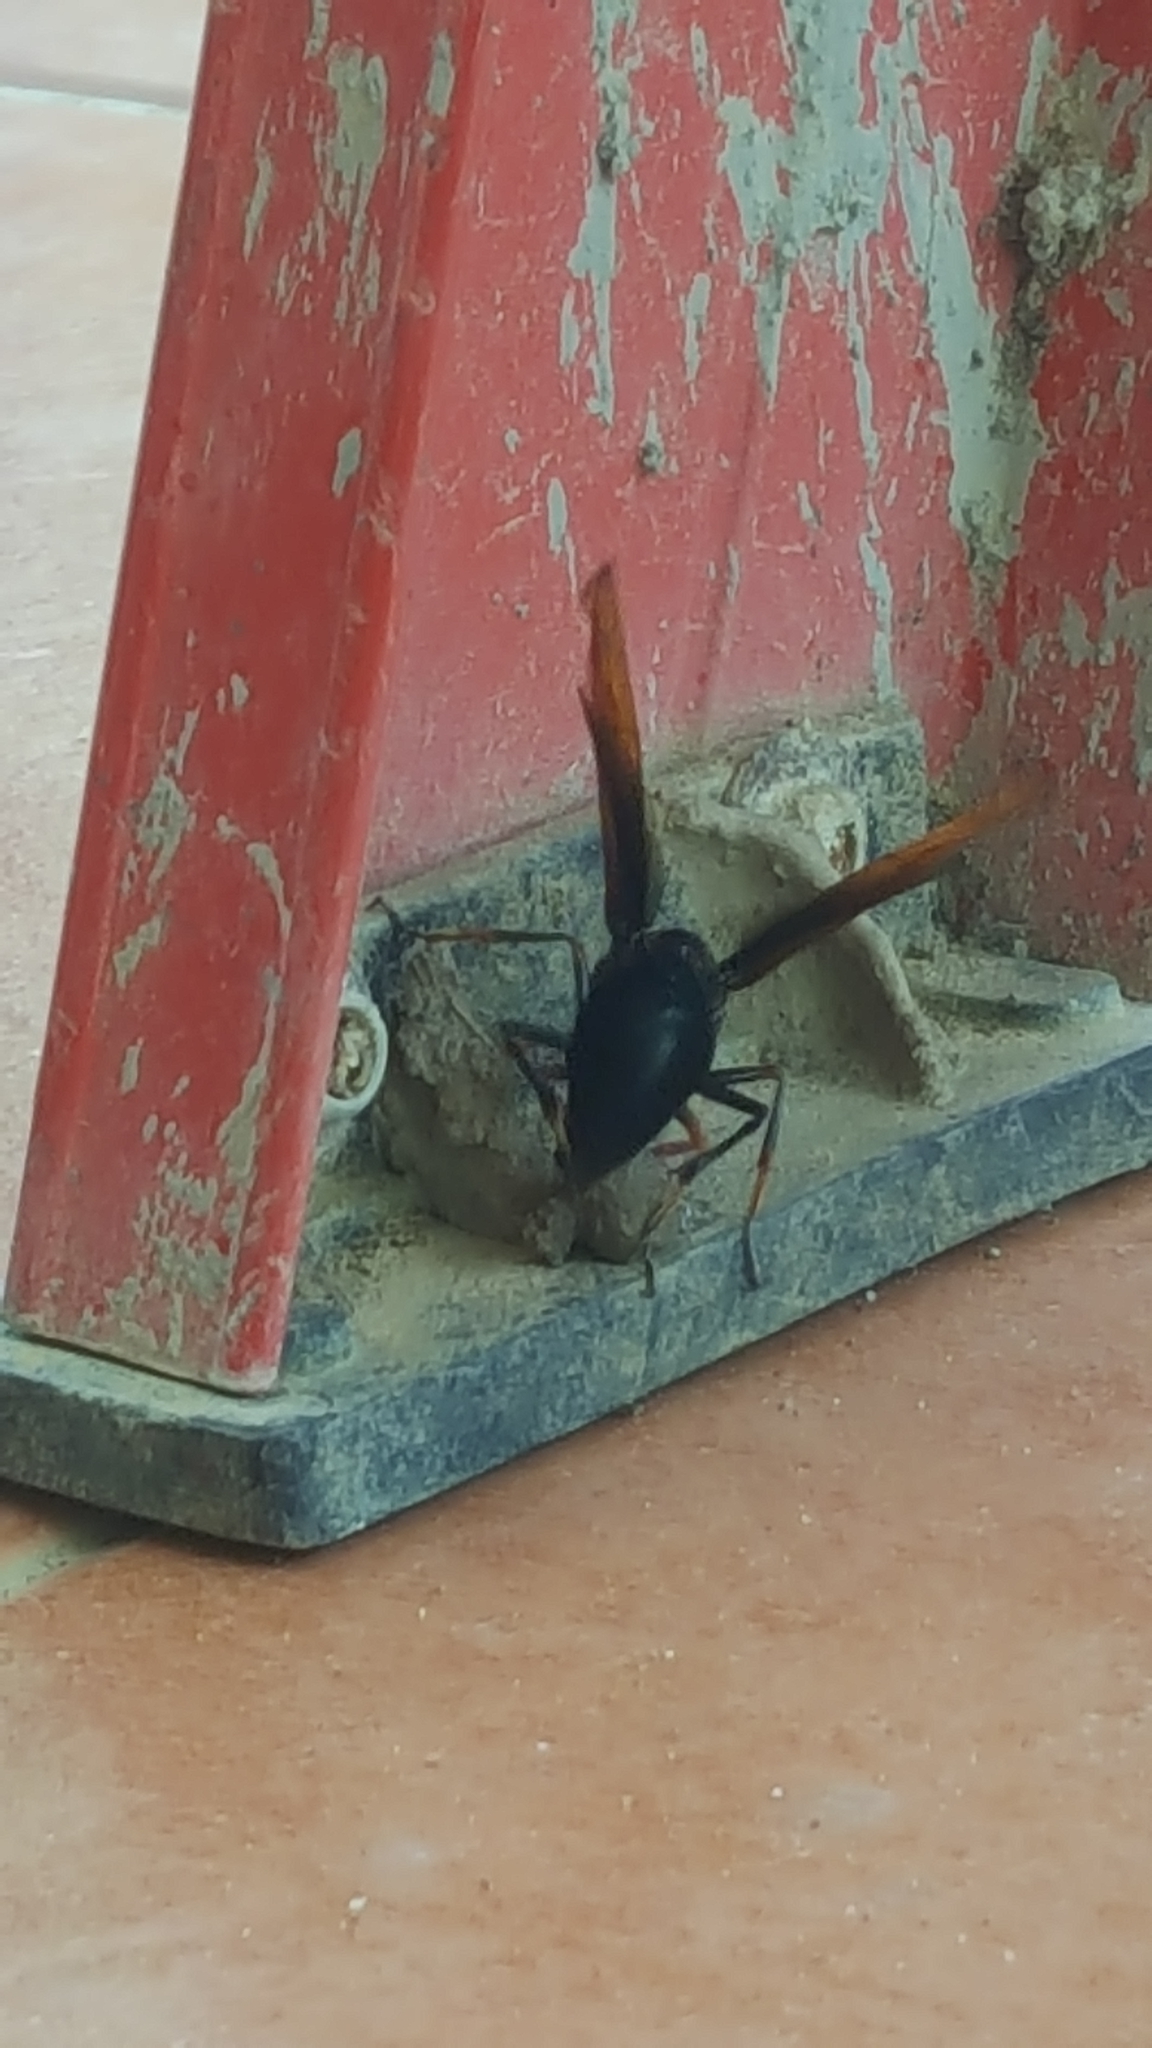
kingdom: Animalia
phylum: Arthropoda
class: Insecta
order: Hymenoptera
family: Eumenidae
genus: Delta
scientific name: Delta pyriforme
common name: Wasp
